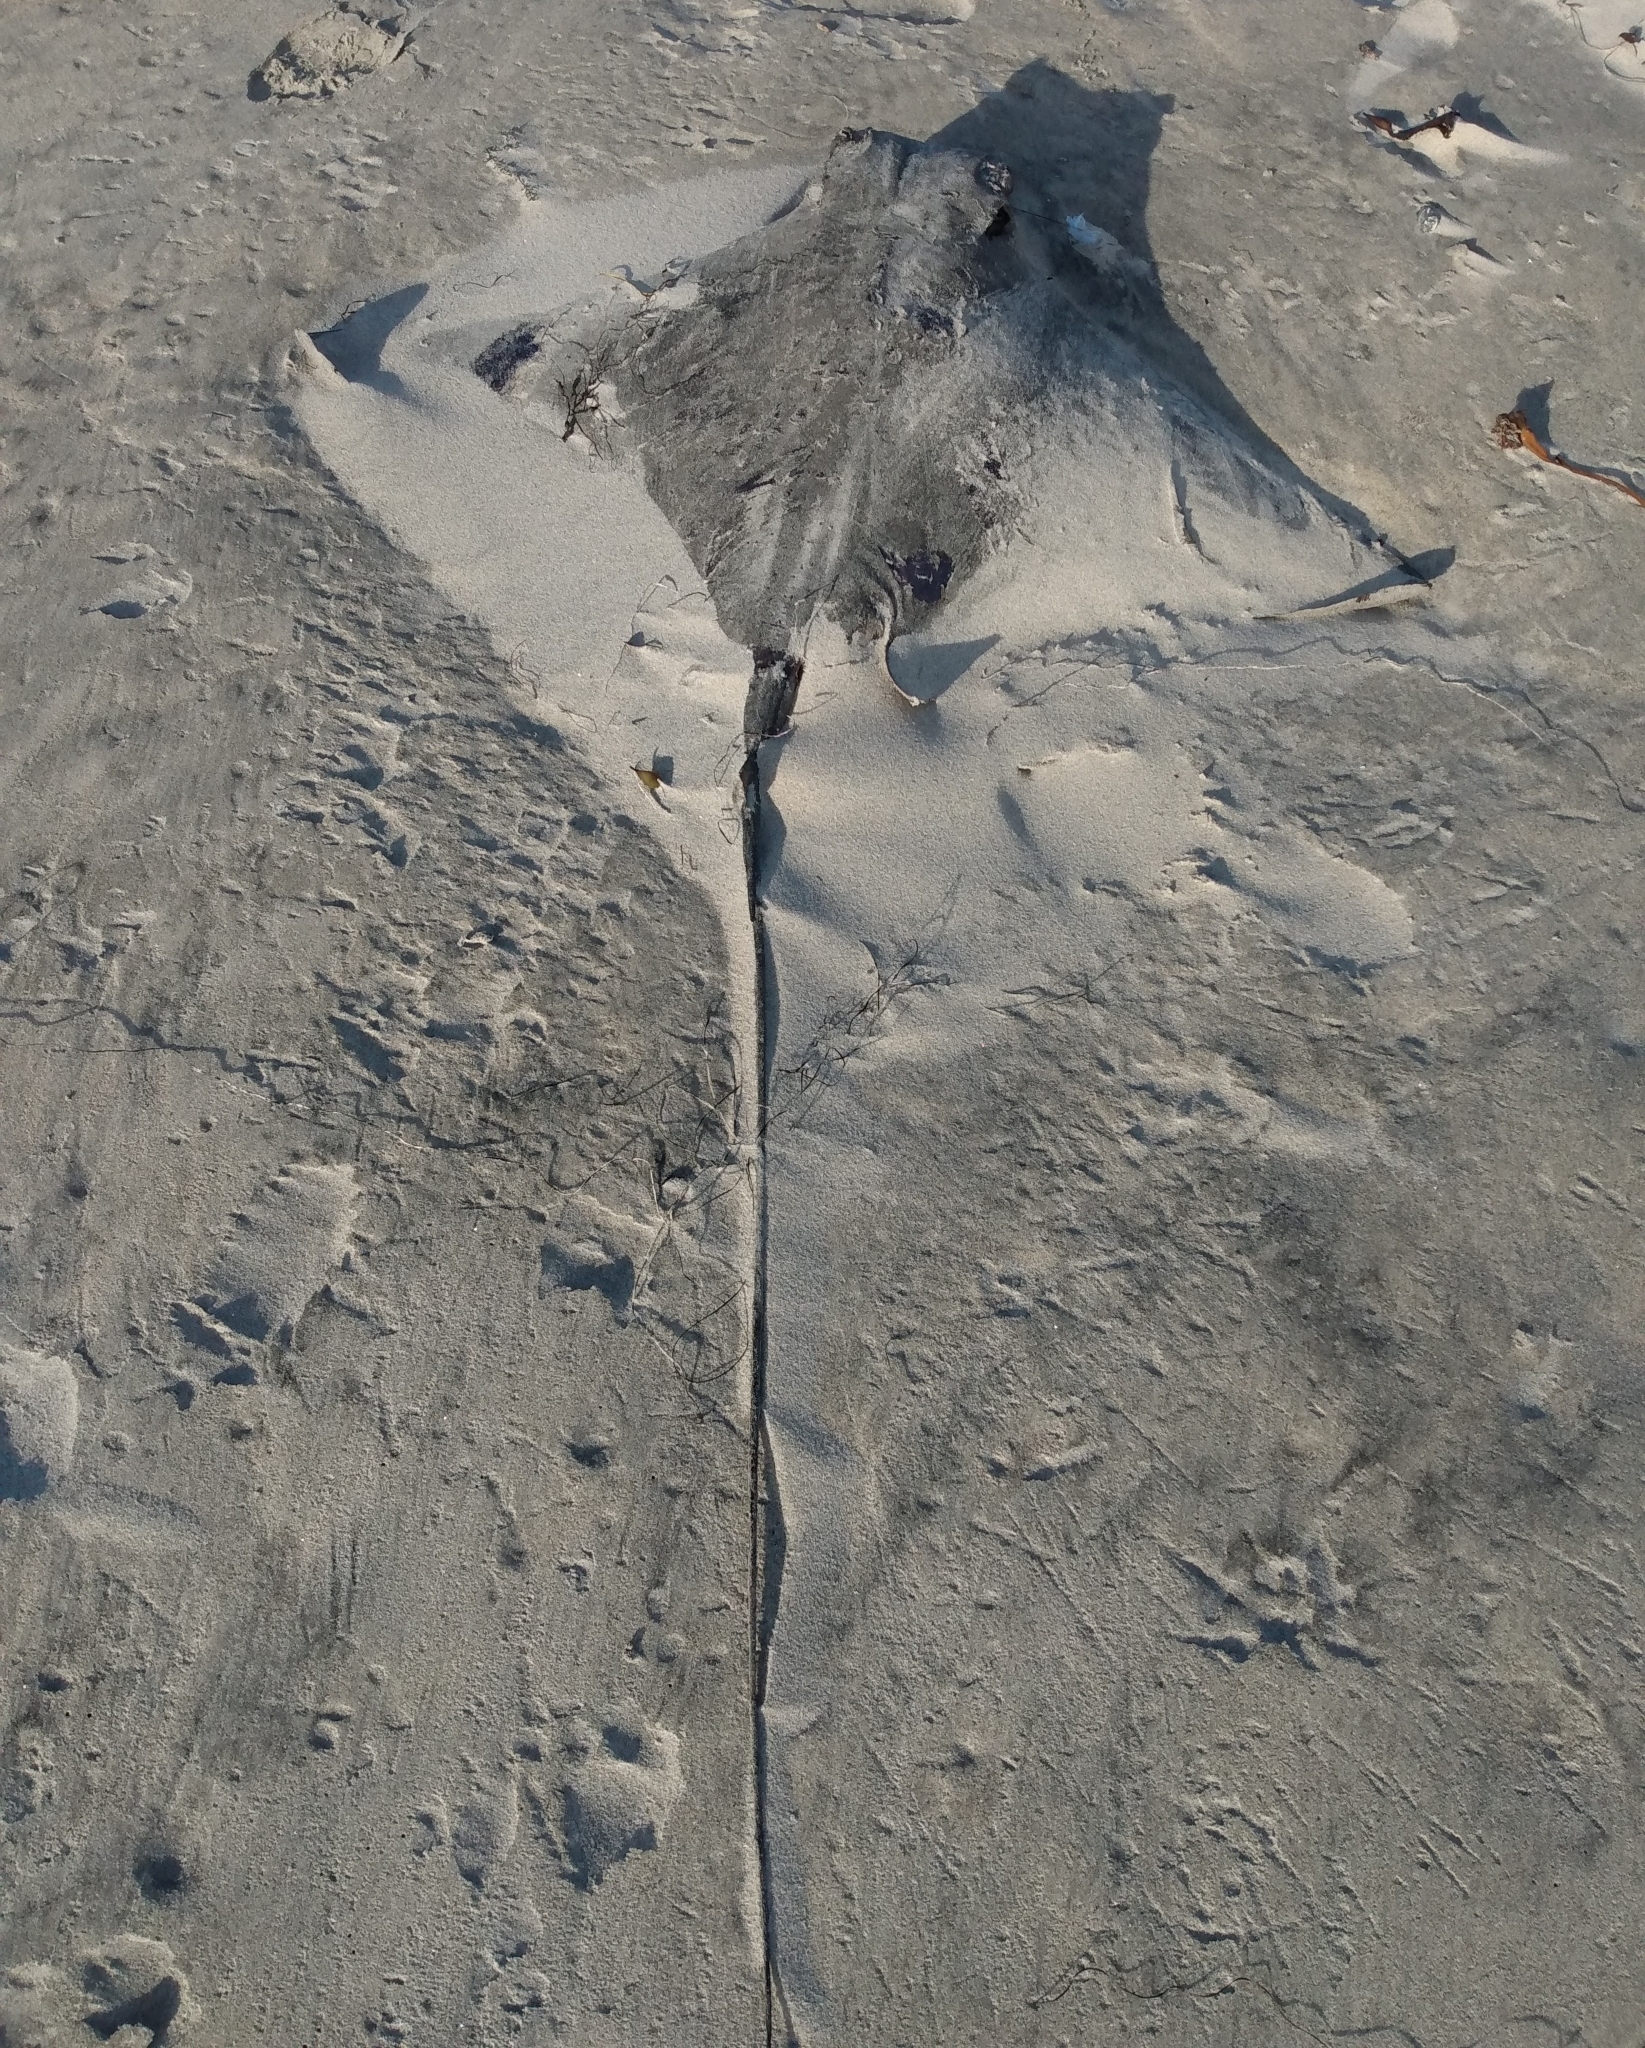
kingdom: Animalia
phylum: Chordata
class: Elasmobranchii
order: Myliobatiformes
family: Myliobatidae
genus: Myliobatis
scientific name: Myliobatis californica
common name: Bat ray
